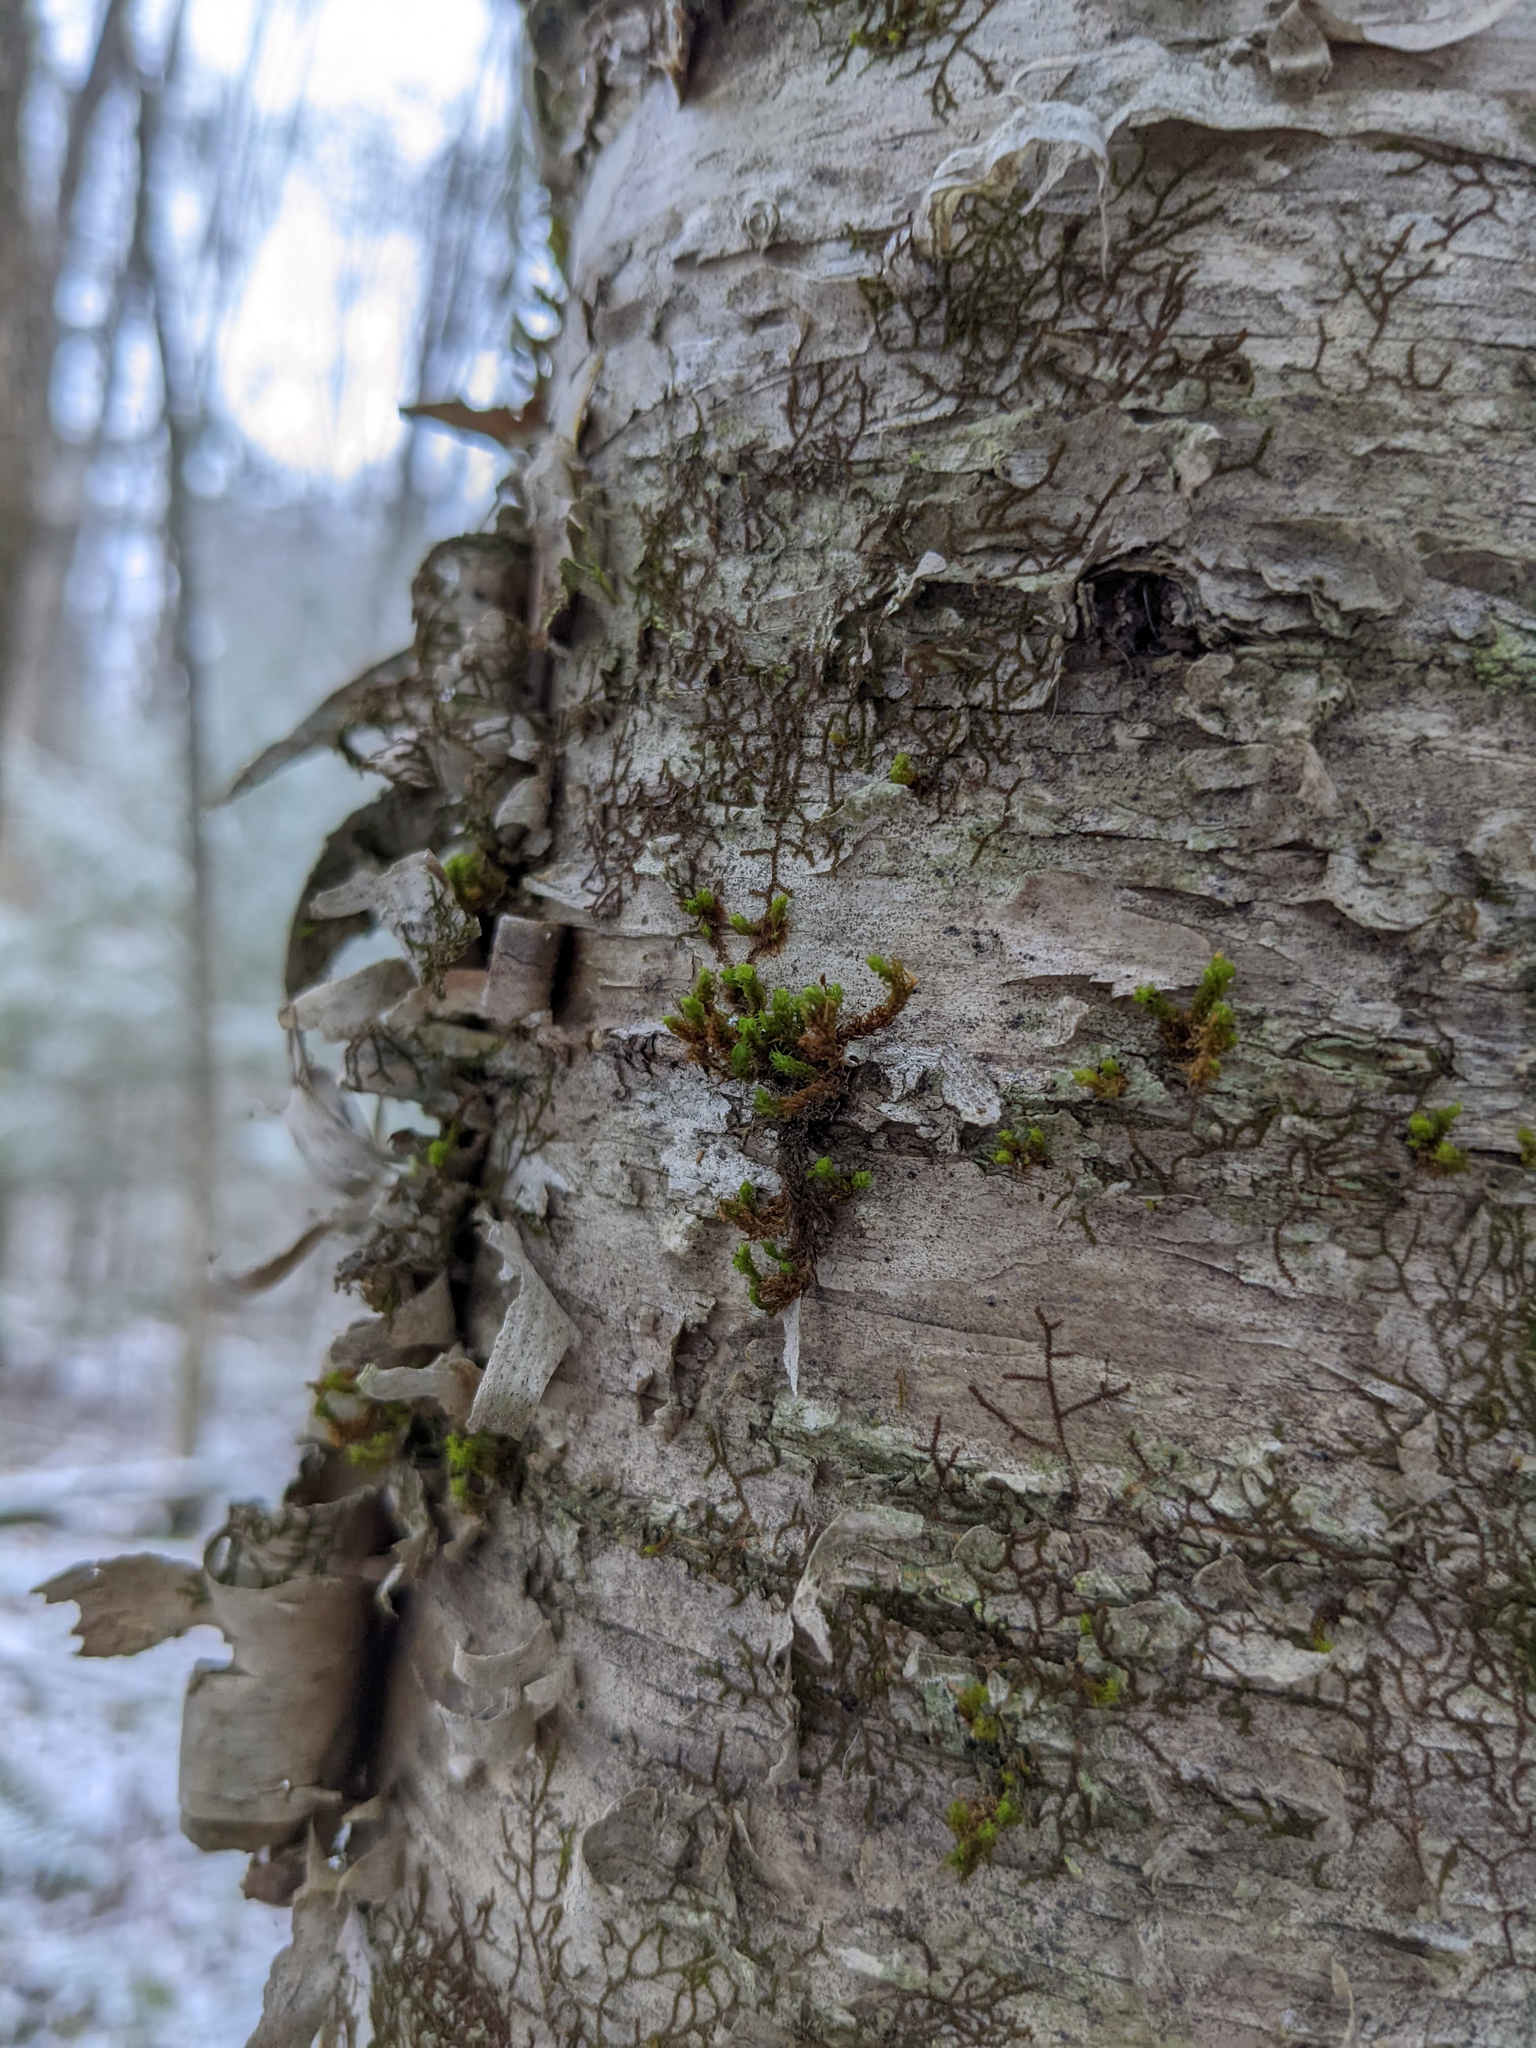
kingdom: Plantae
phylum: Bryophyta
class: Bryopsida
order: Orthotrichales
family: Orthotrichaceae
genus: Ulota
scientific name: Ulota crispa
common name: Crisped pincushion moss
